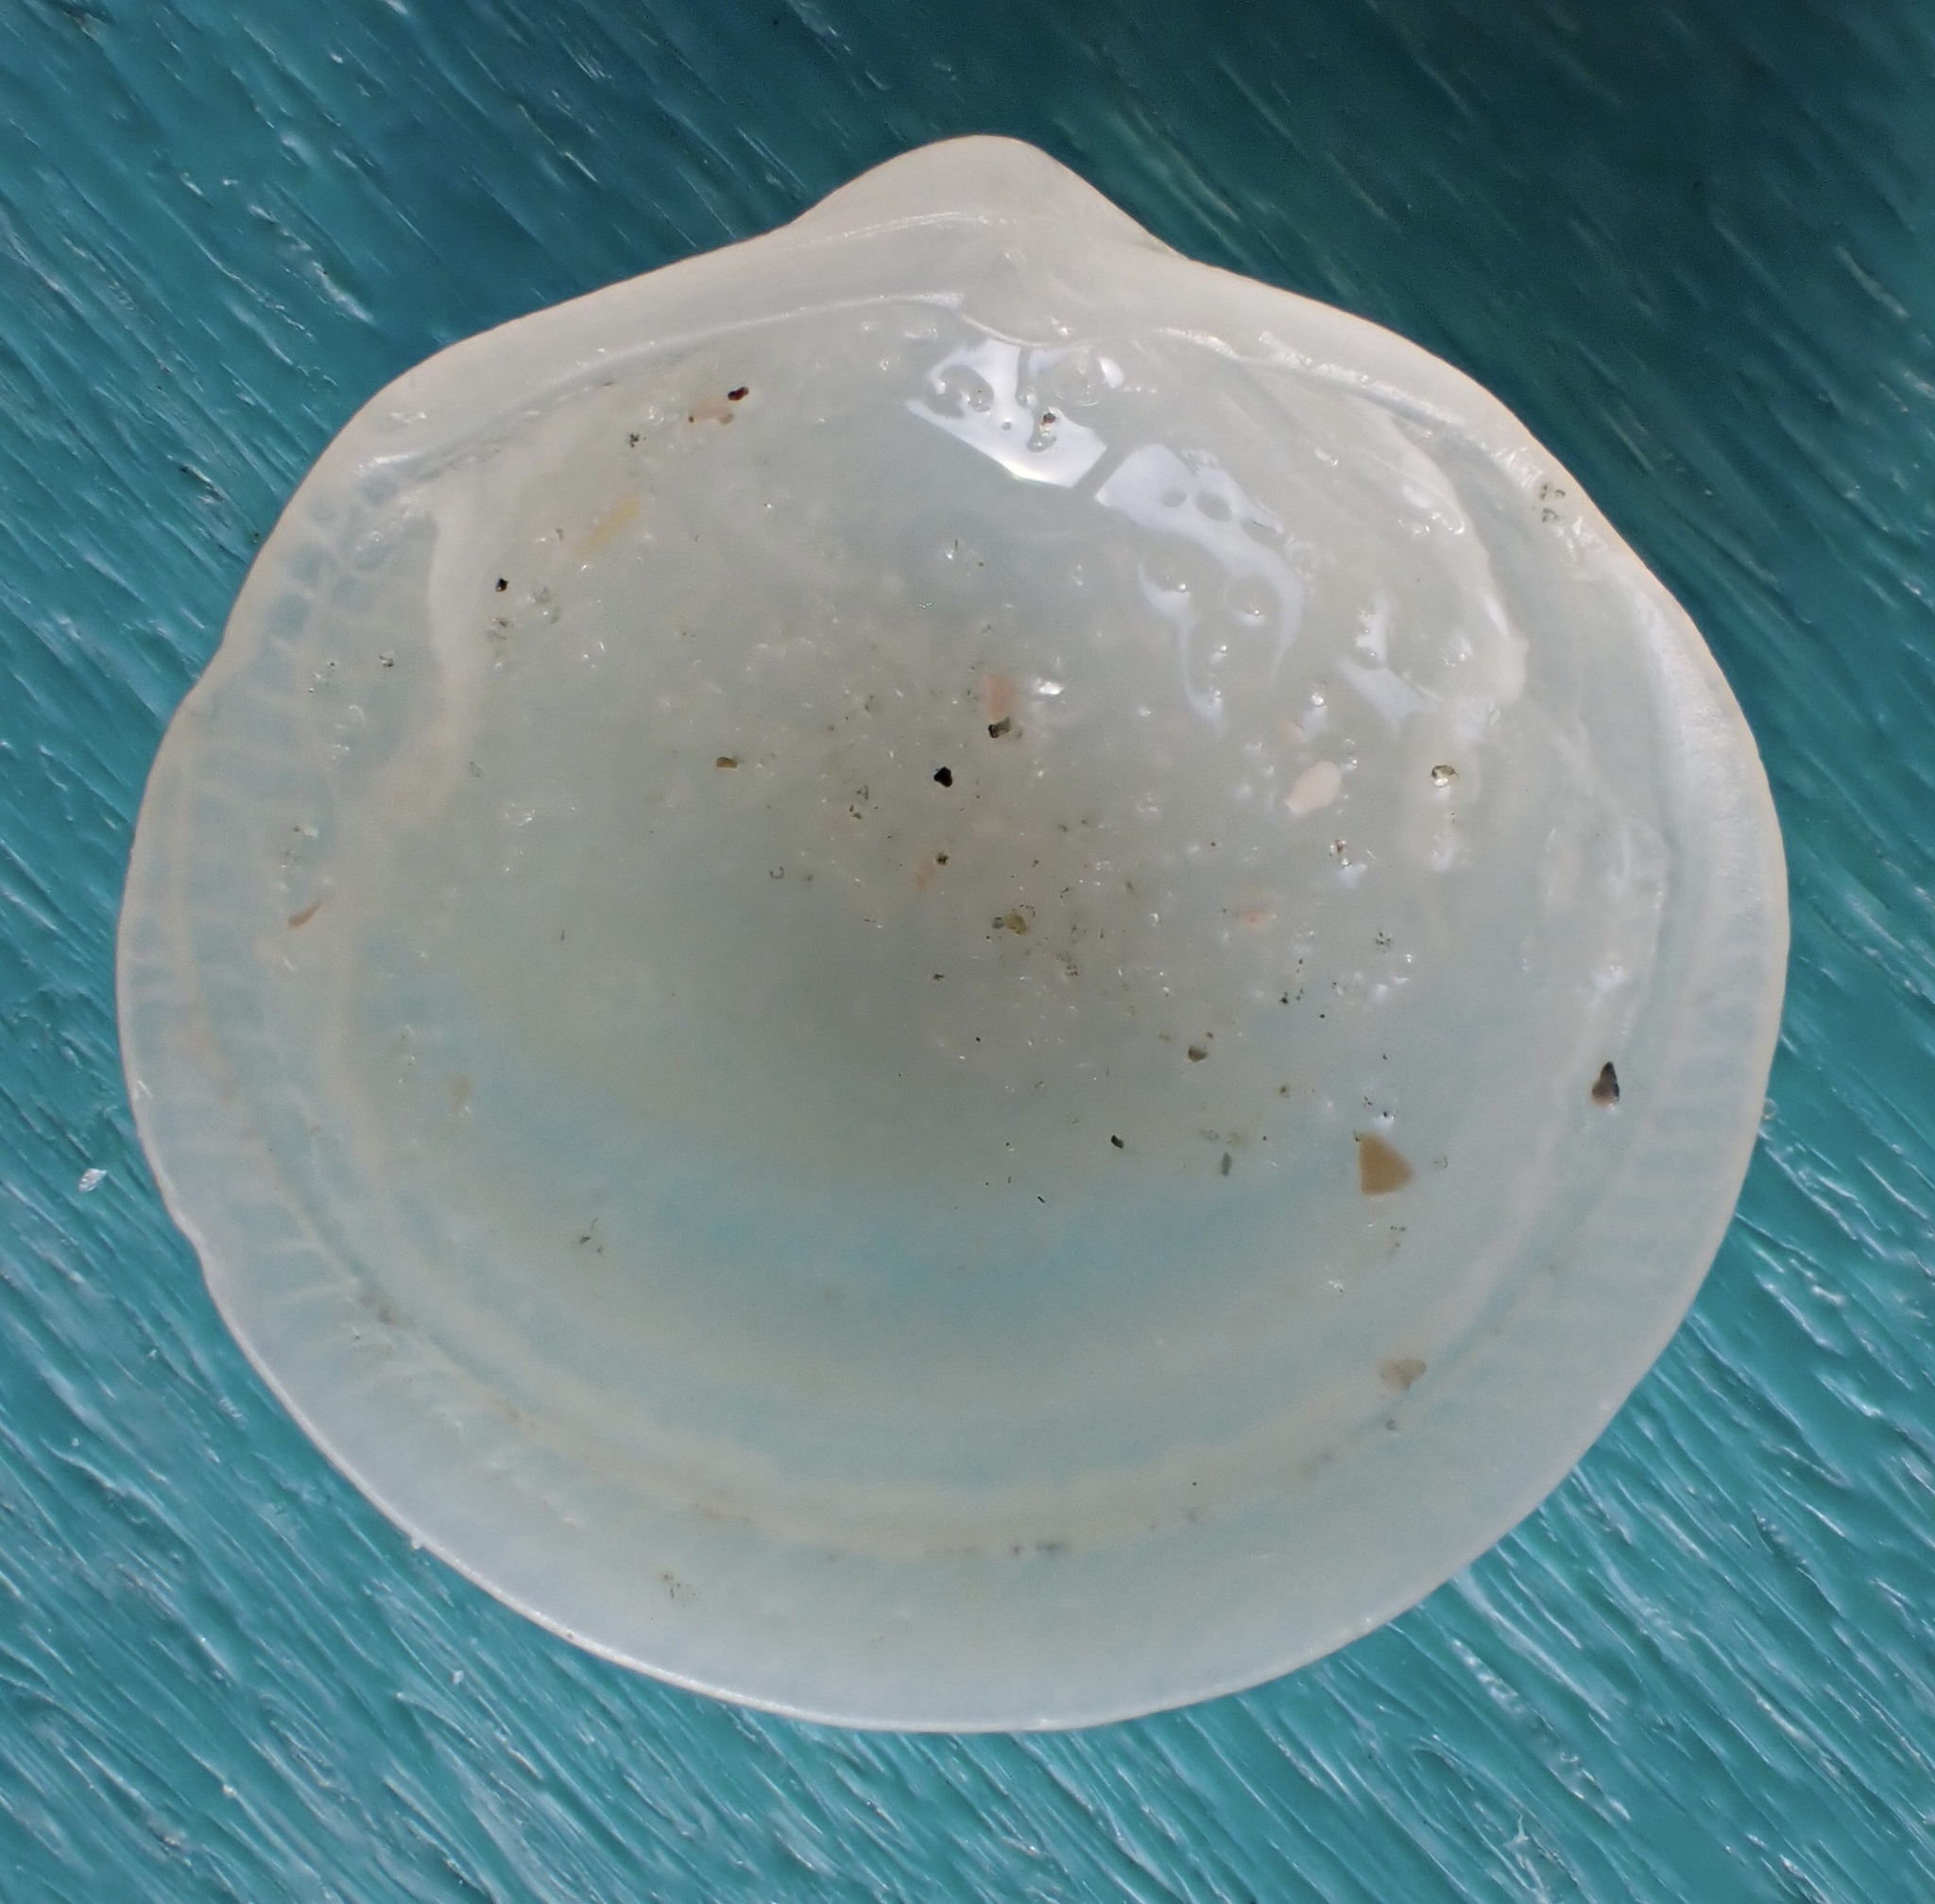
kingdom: Animalia
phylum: Mollusca
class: Bivalvia
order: Lucinida
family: Lucinidae
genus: Divalinga
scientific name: Divalinga quadrisulcata
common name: Cross-hatched lucine
